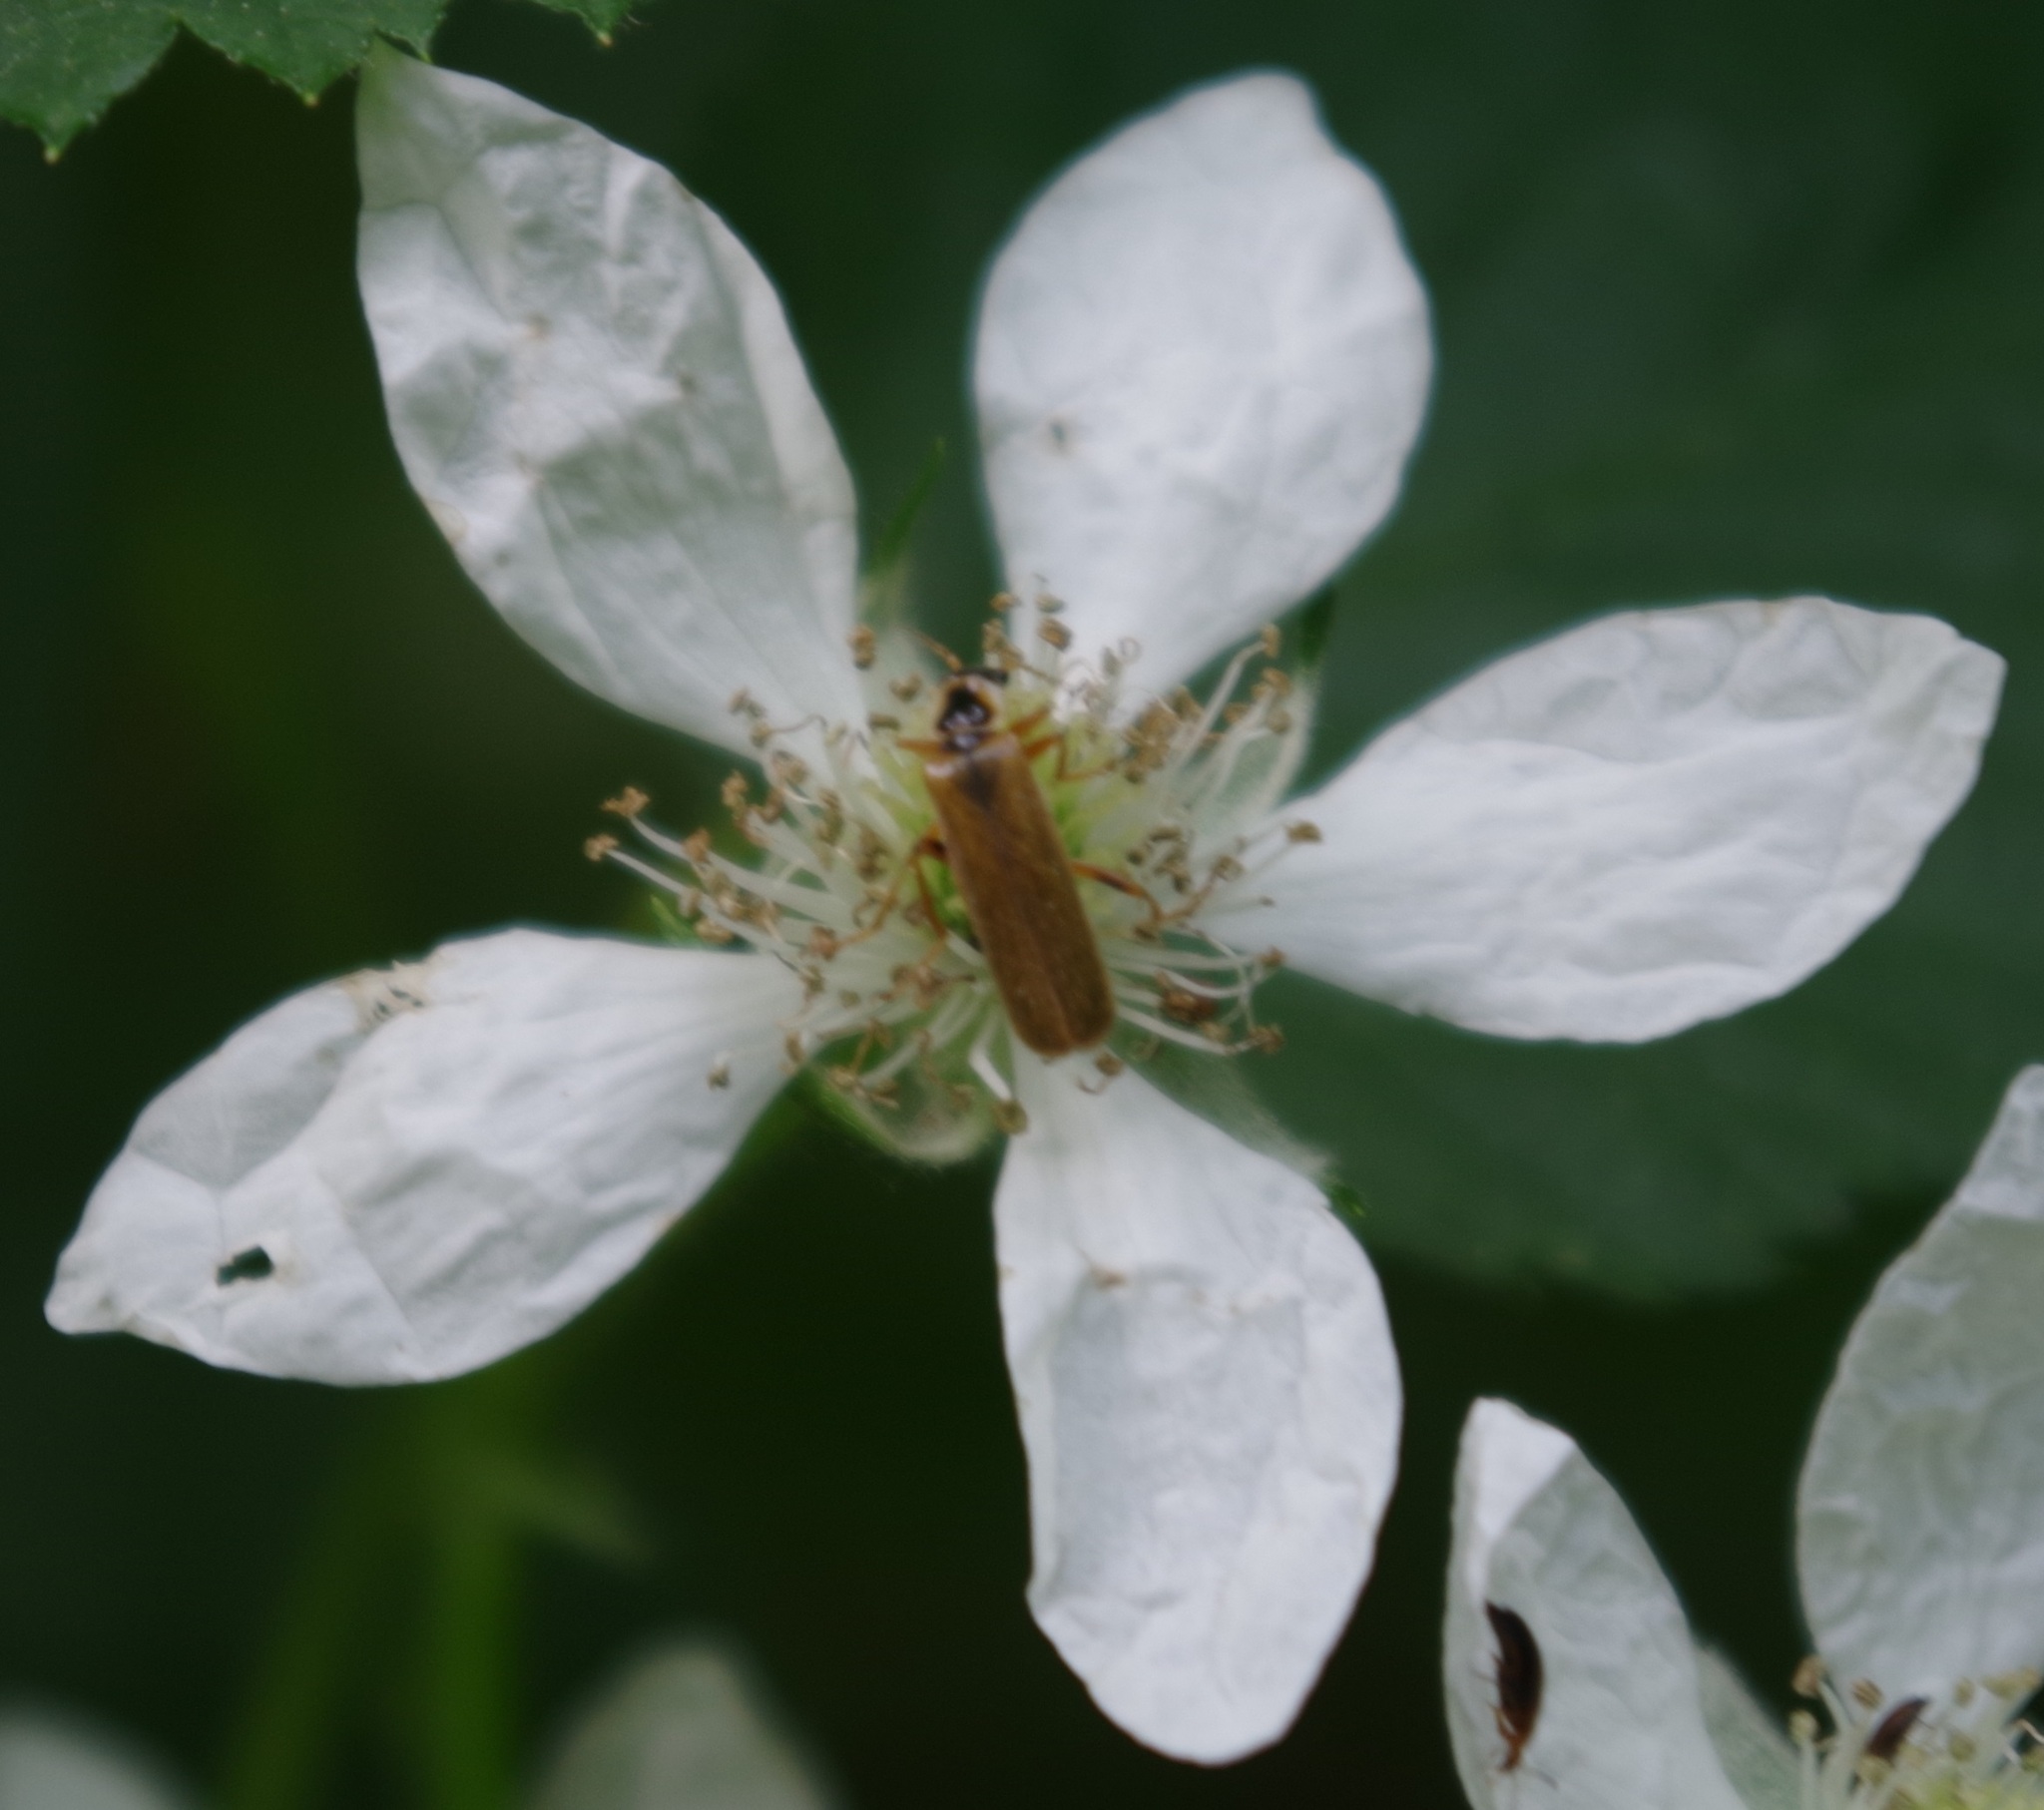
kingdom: Animalia
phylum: Arthropoda
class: Insecta
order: Coleoptera
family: Cantharidae
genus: Cantharis
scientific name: Cantharis decipiens
